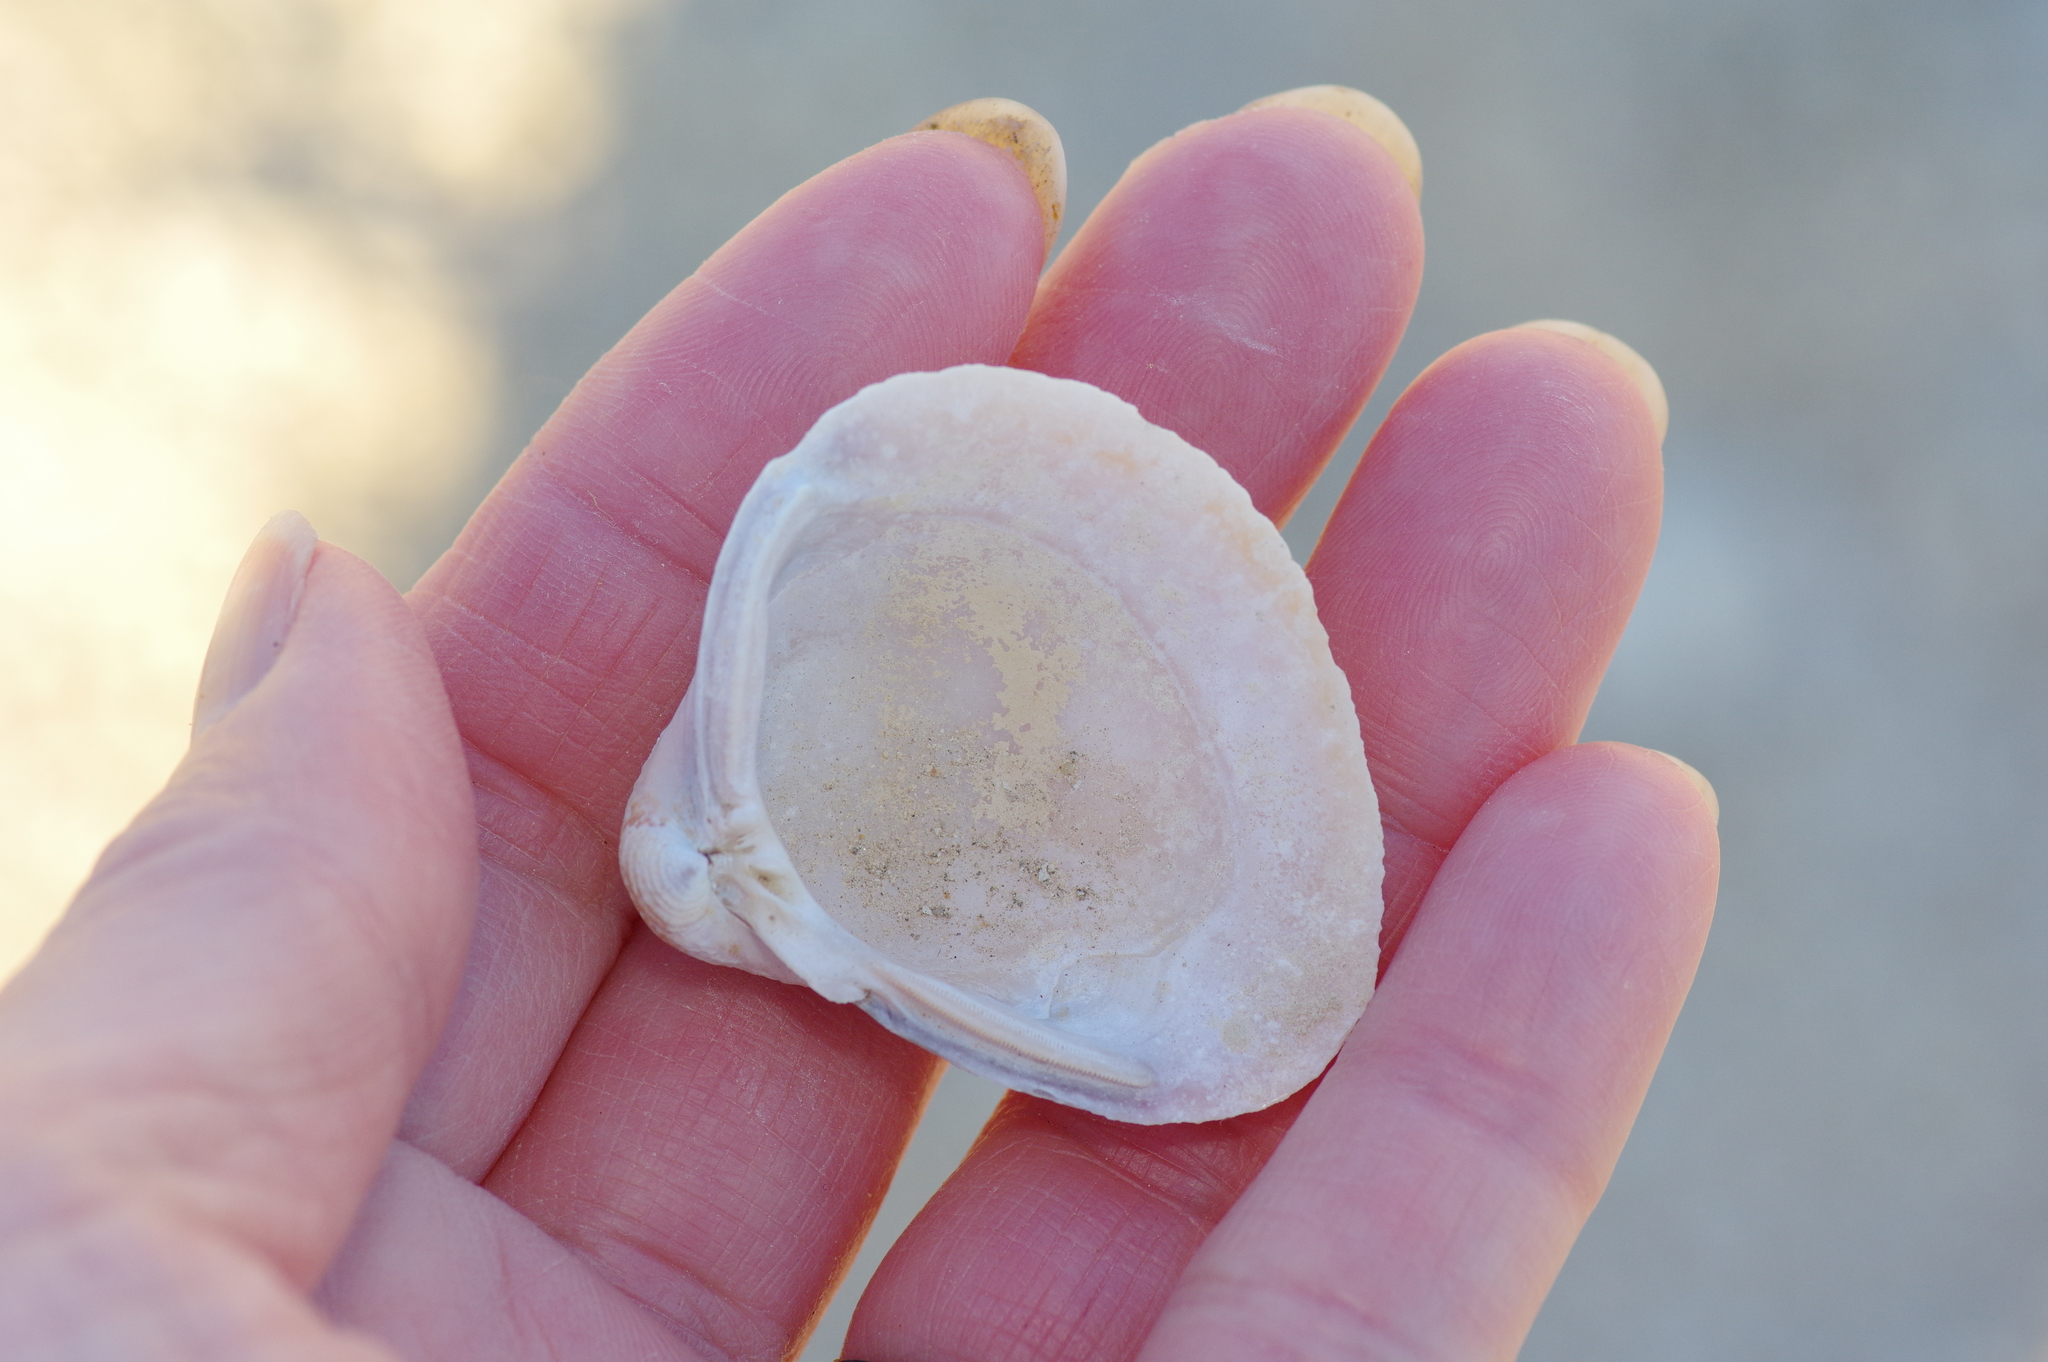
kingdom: Animalia
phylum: Mollusca
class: Bivalvia
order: Venerida
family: Cyrenidae
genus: Corbicula
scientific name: Corbicula fluminea
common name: Asian clam
